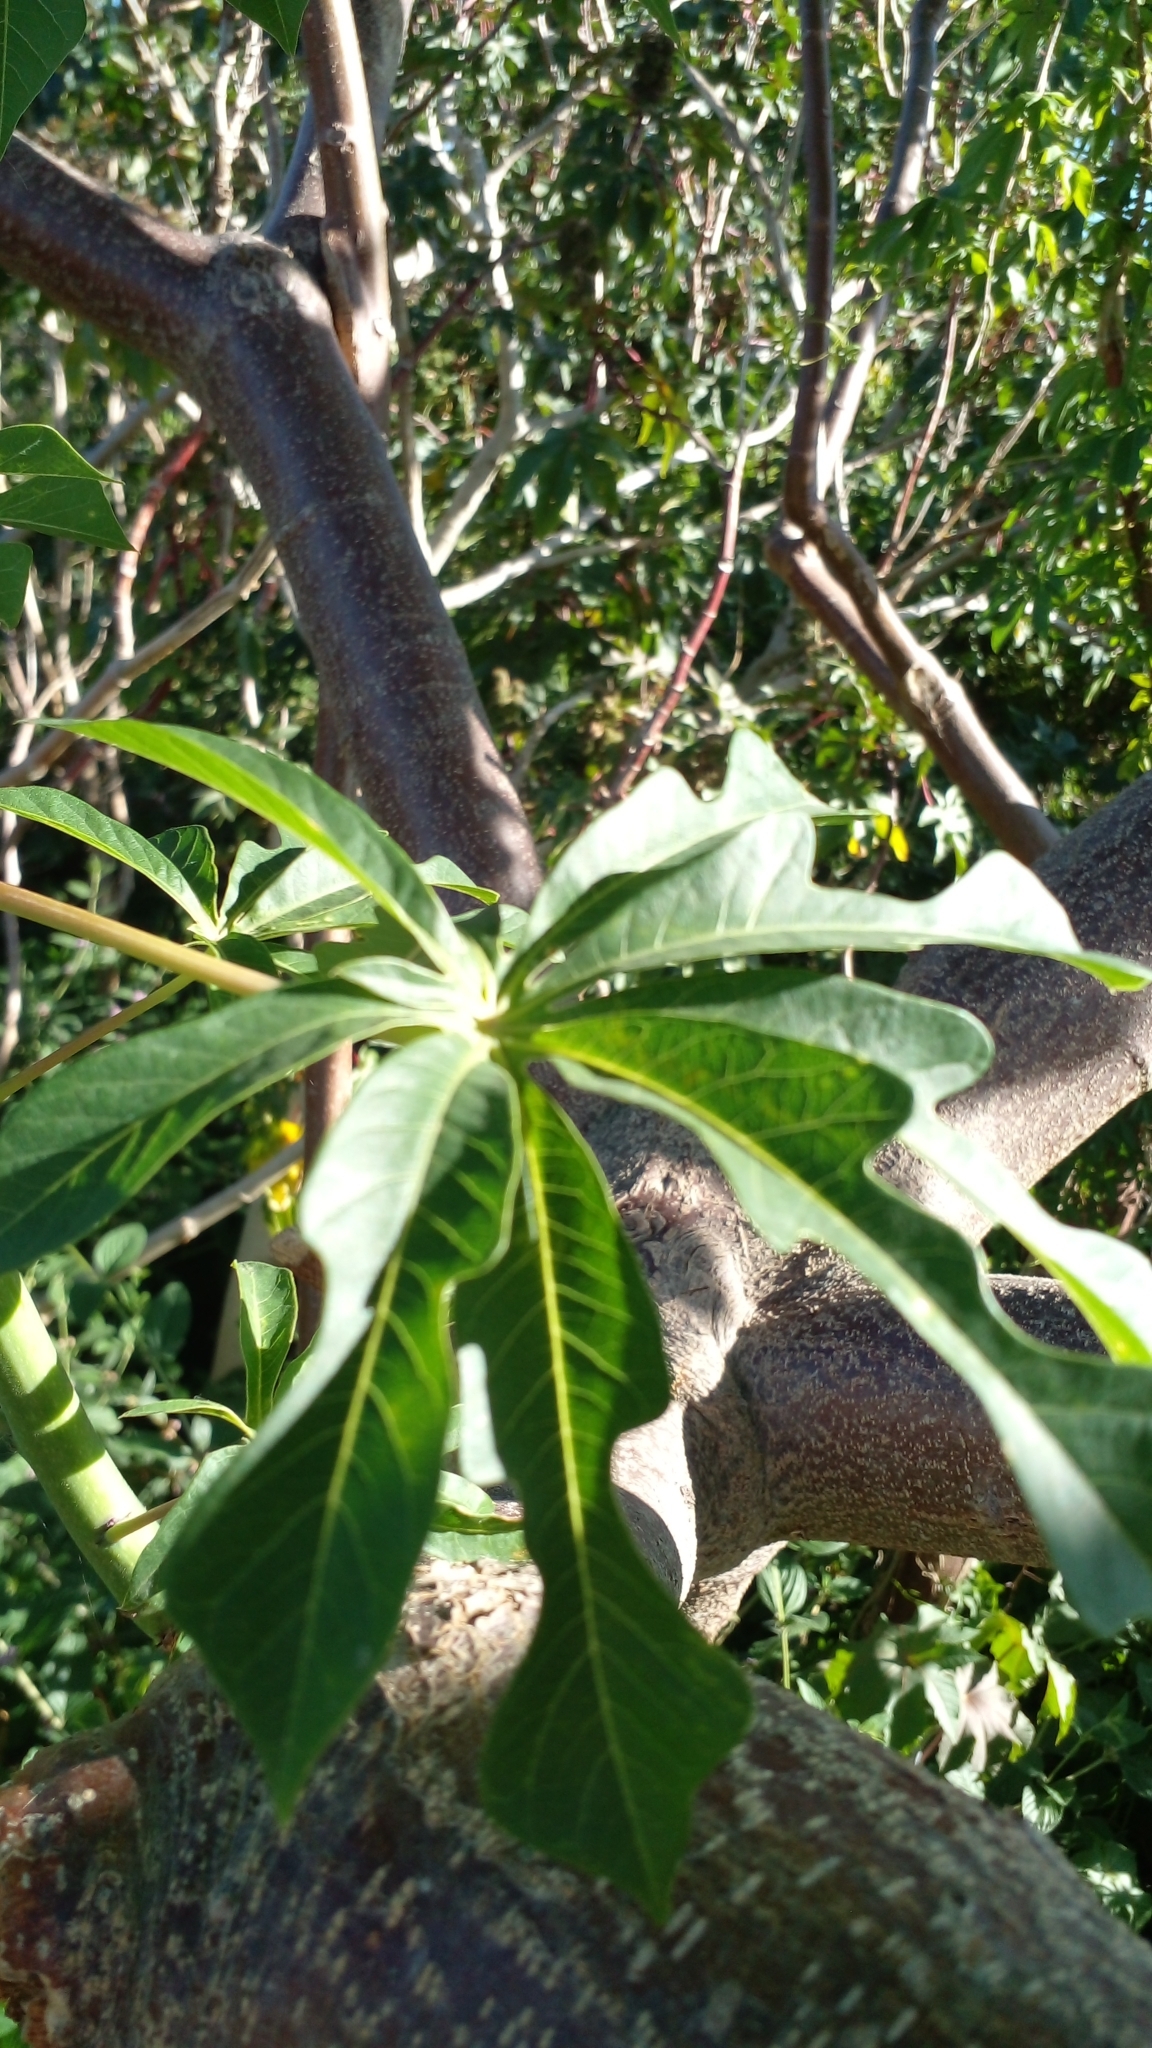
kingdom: Plantae
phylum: Tracheophyta
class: Magnoliopsida
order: Malpighiales
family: Euphorbiaceae
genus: Manihot
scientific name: Manihot grahamii
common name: Graham's manihot
